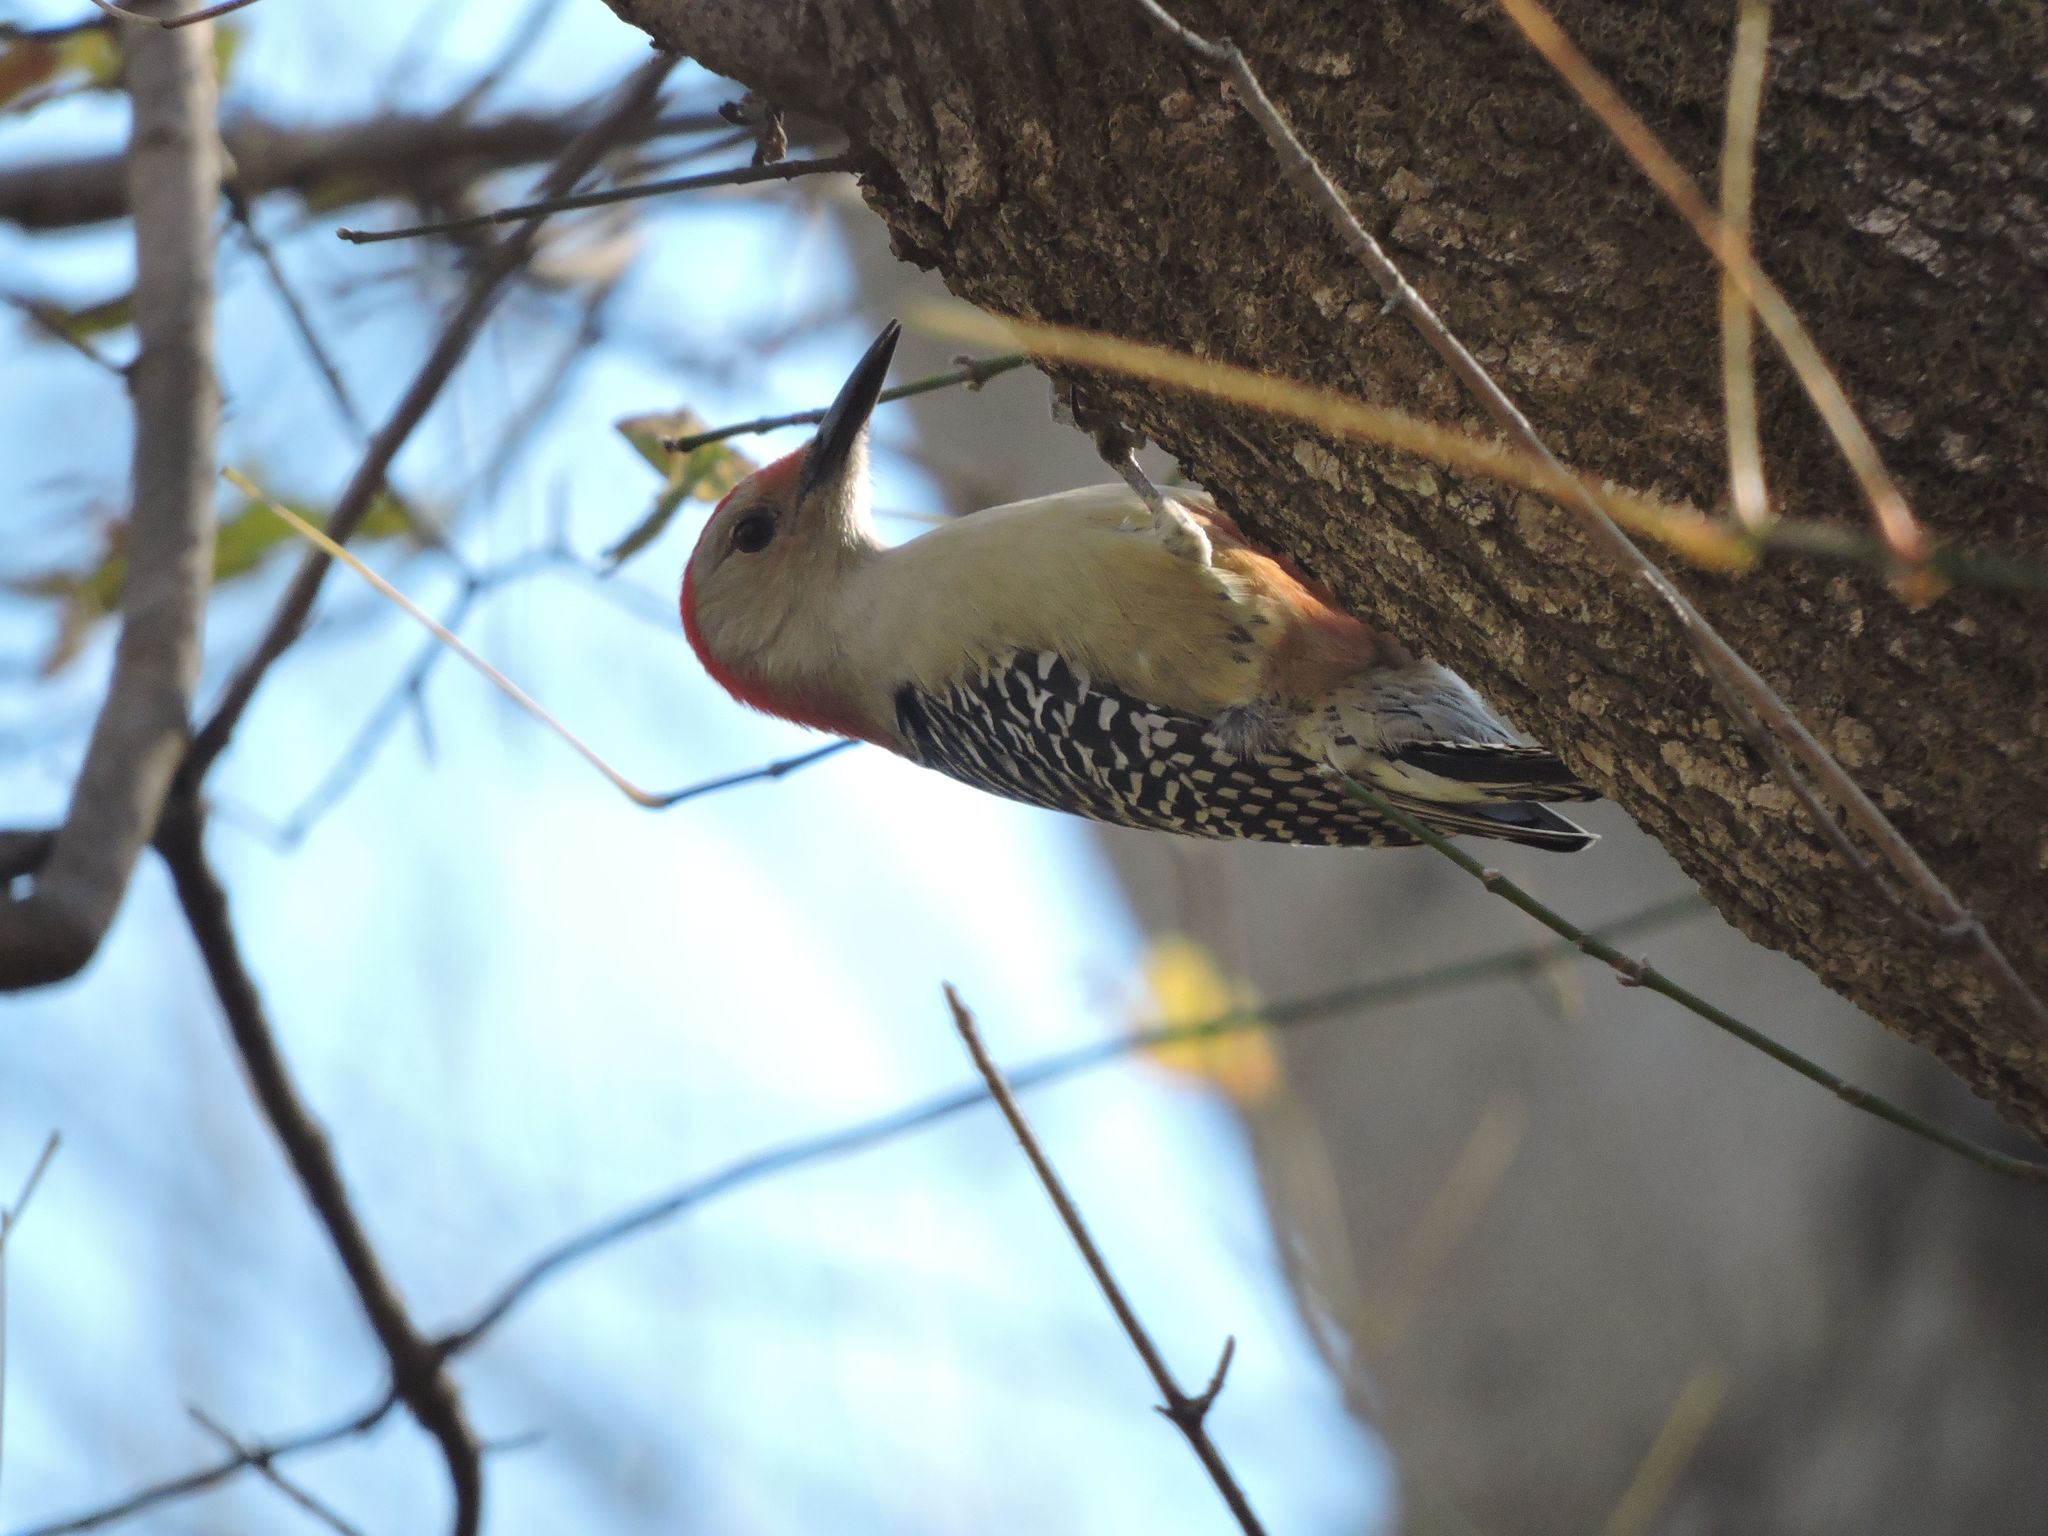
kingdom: Animalia
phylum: Chordata
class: Aves
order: Piciformes
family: Picidae
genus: Melanerpes
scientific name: Melanerpes carolinus
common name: Red-bellied woodpecker
